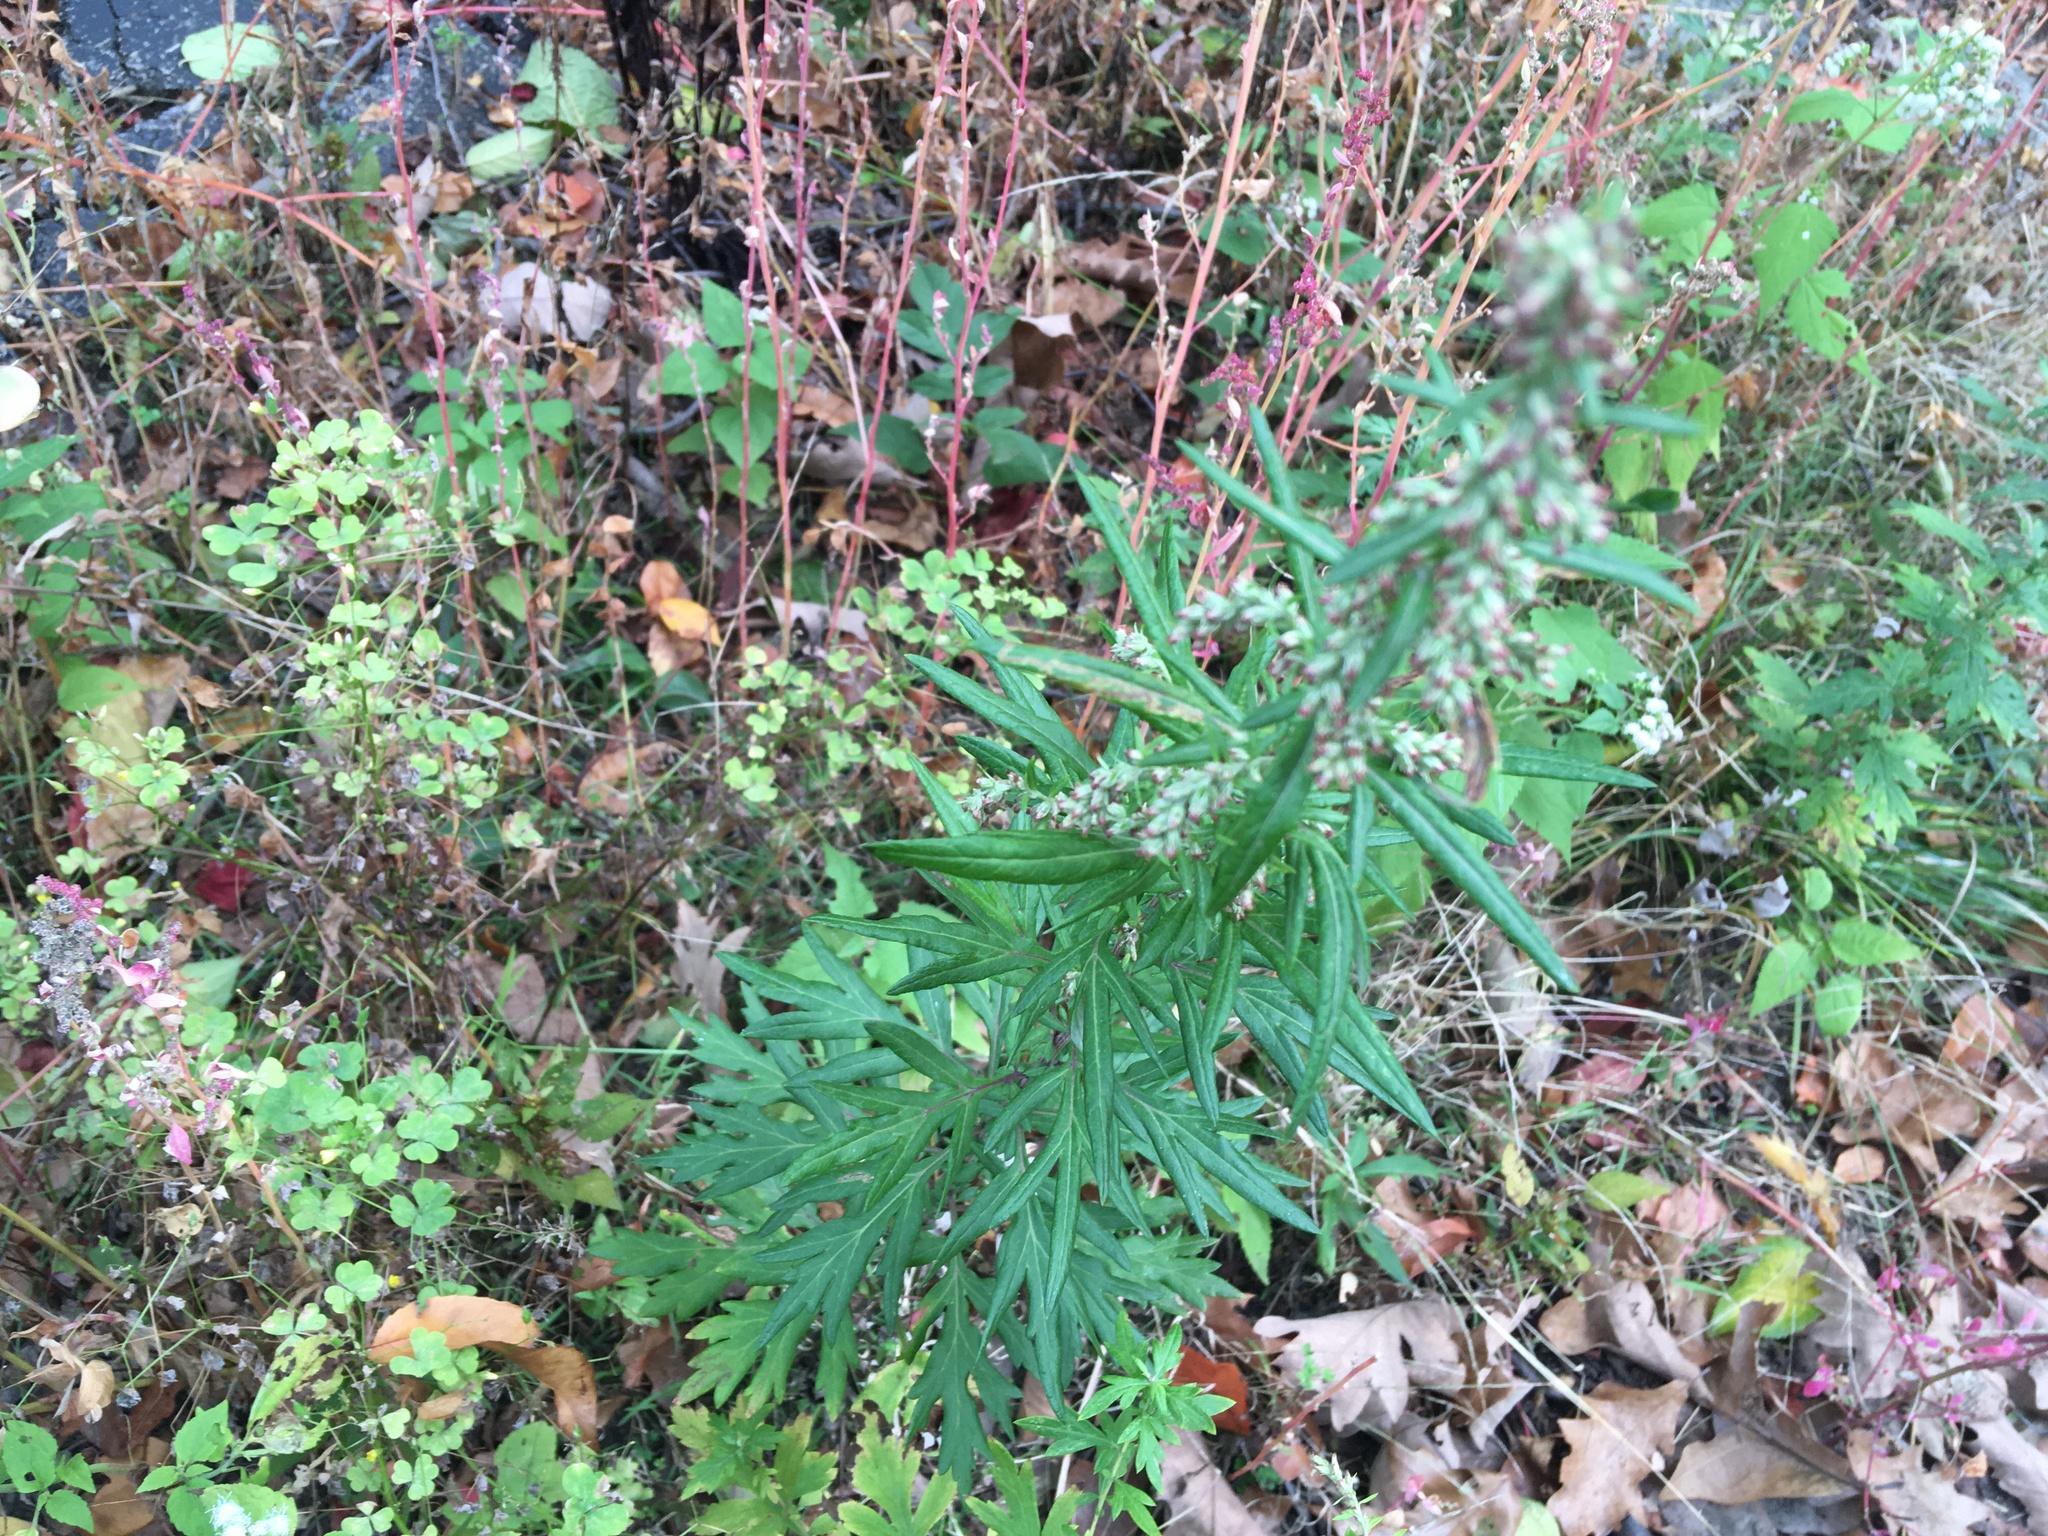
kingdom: Plantae
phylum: Tracheophyta
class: Magnoliopsida
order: Asterales
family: Asteraceae
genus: Artemisia
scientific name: Artemisia vulgaris
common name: Mugwort
